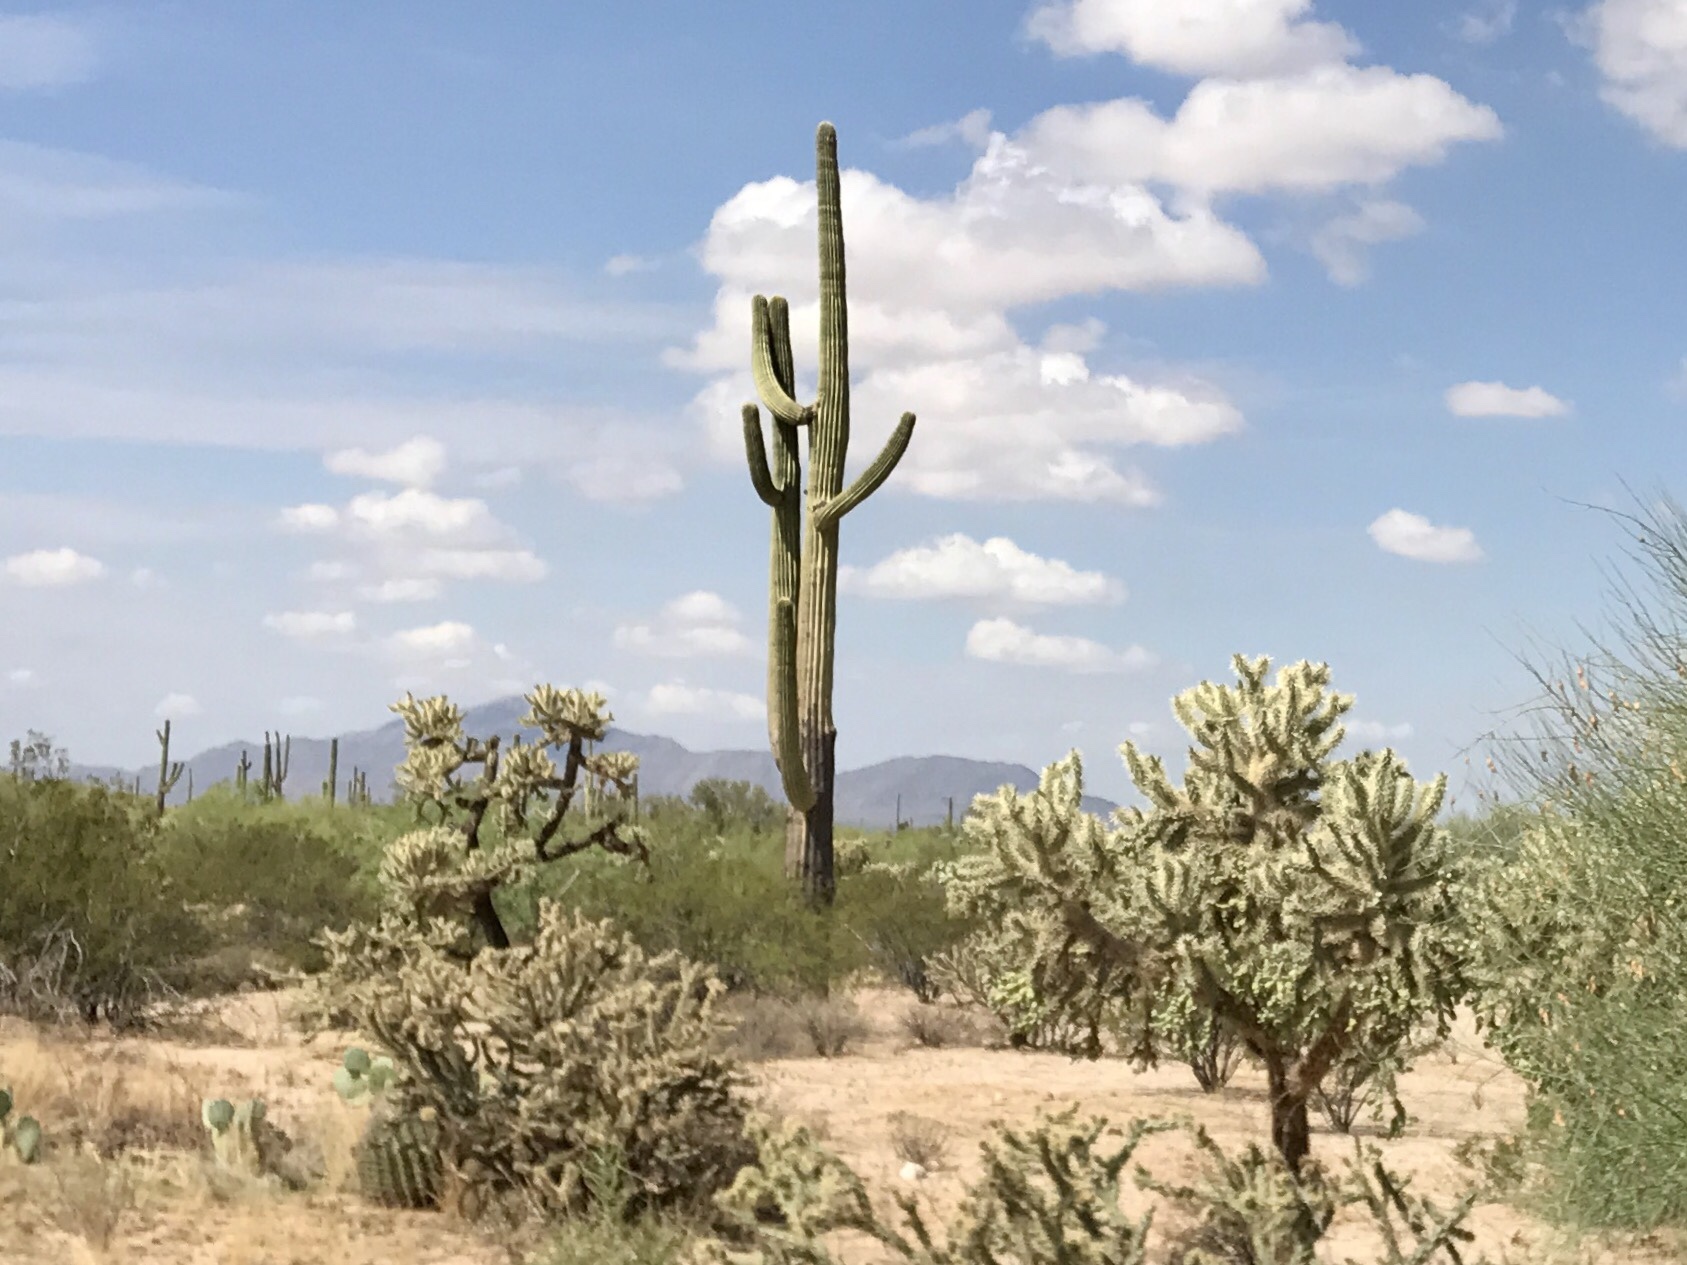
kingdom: Plantae
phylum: Tracheophyta
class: Magnoliopsida
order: Caryophyllales
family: Cactaceae
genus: Carnegiea
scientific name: Carnegiea gigantea
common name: Saguaro
